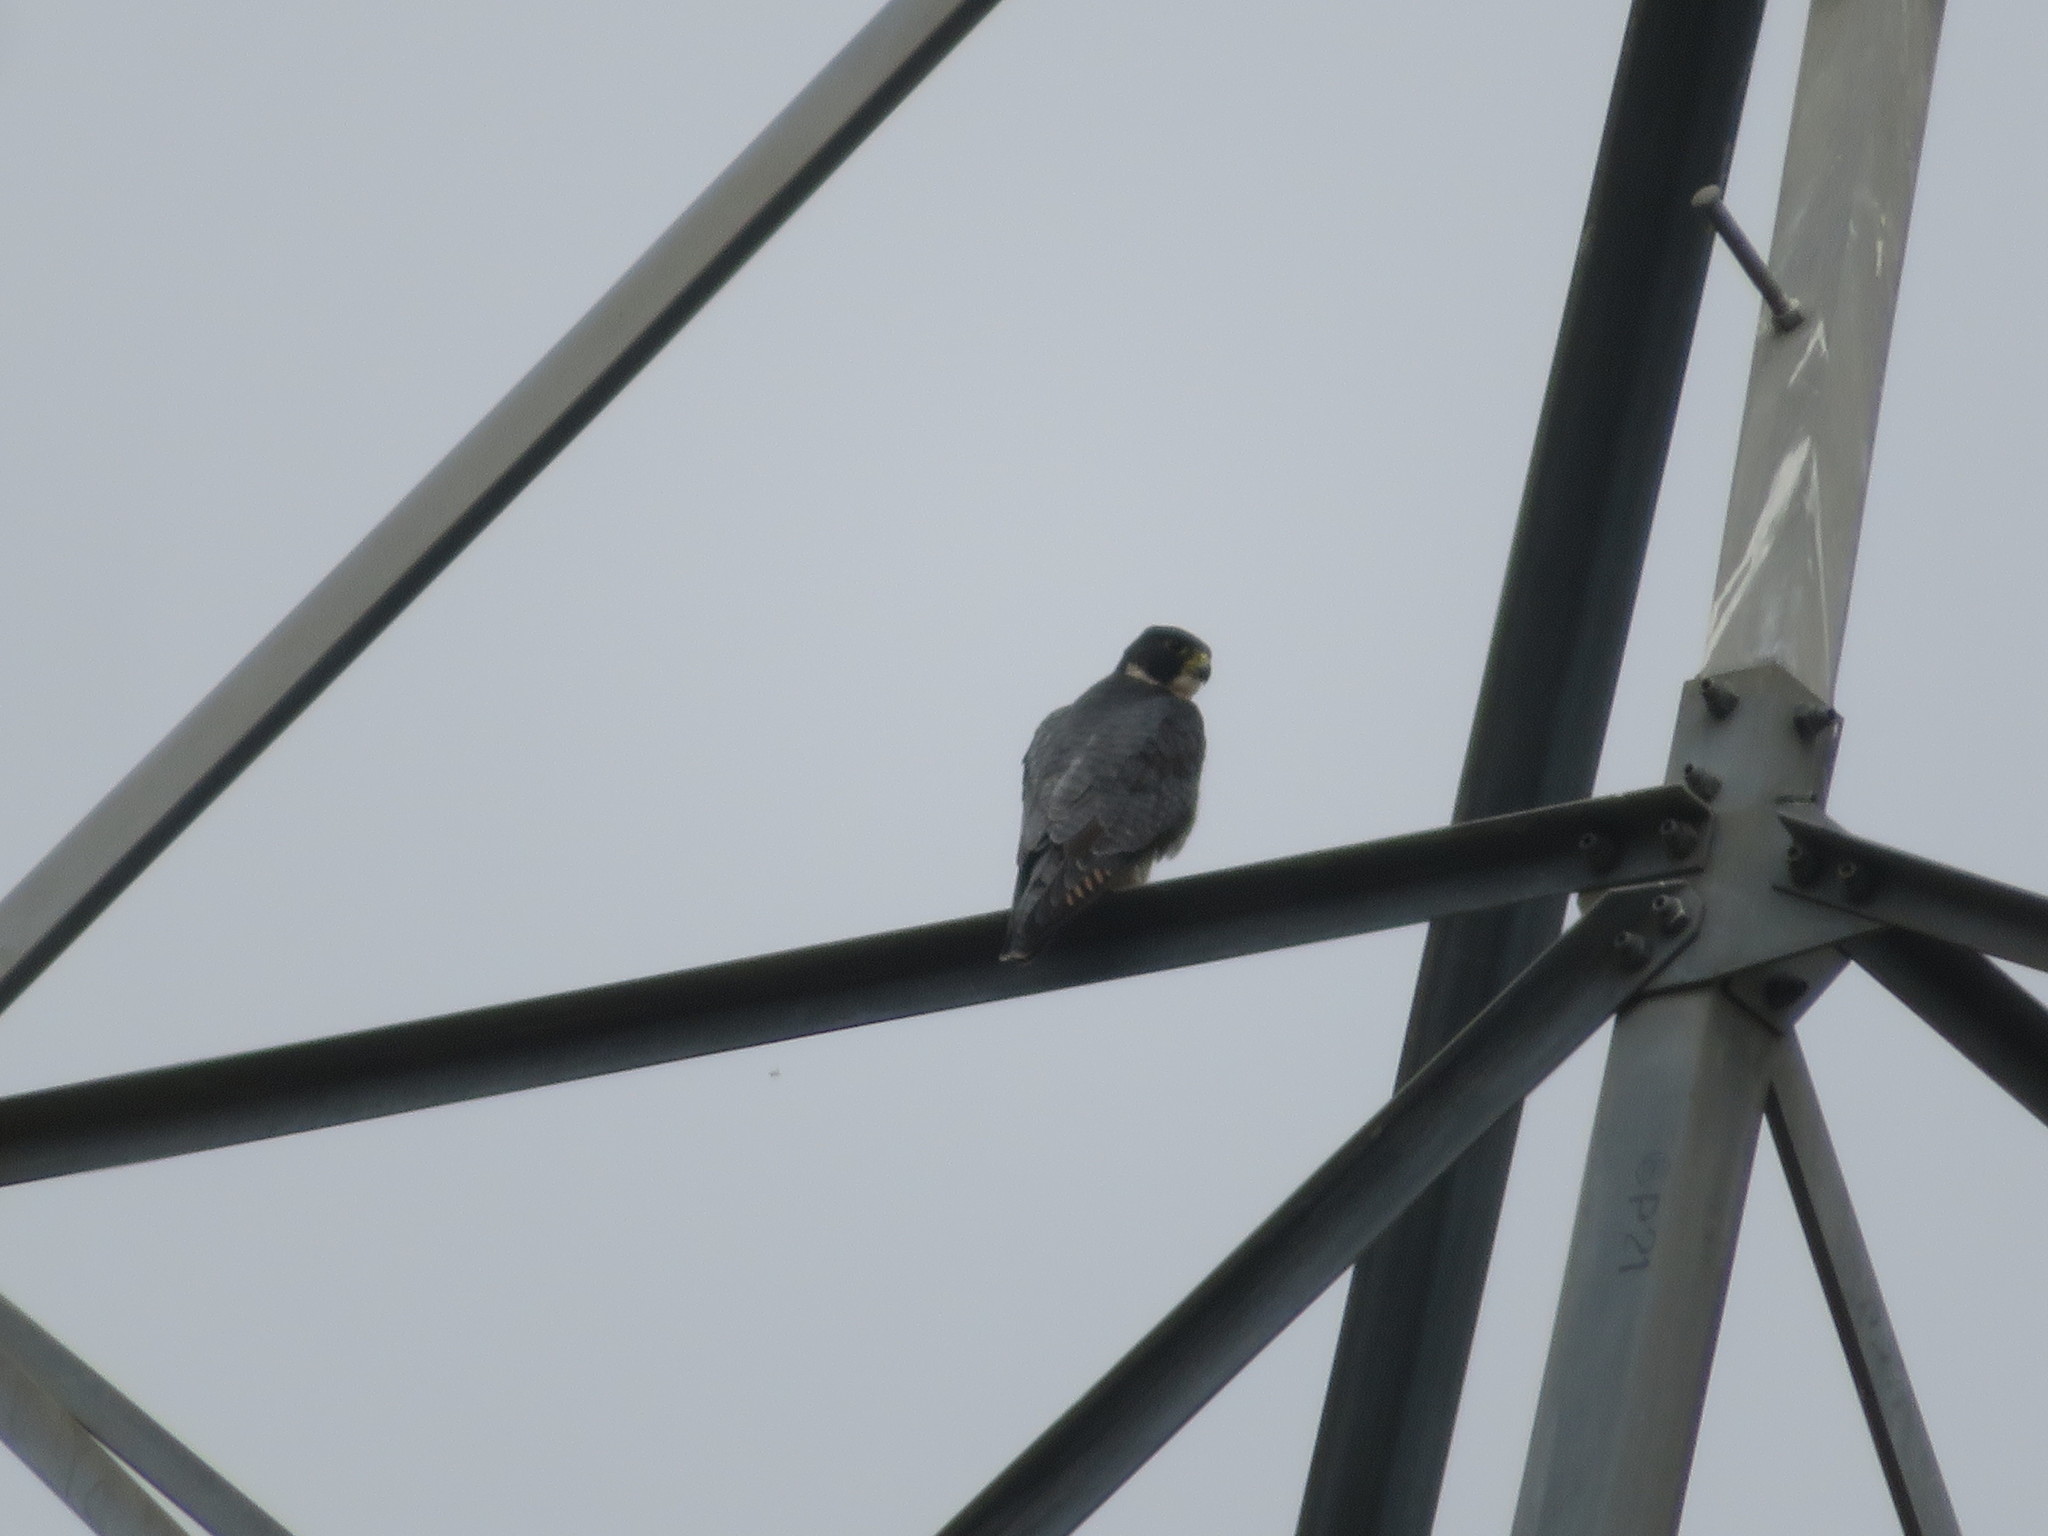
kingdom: Animalia
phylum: Chordata
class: Aves
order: Falconiformes
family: Falconidae
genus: Falco
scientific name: Falco peregrinus
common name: Peregrine falcon
